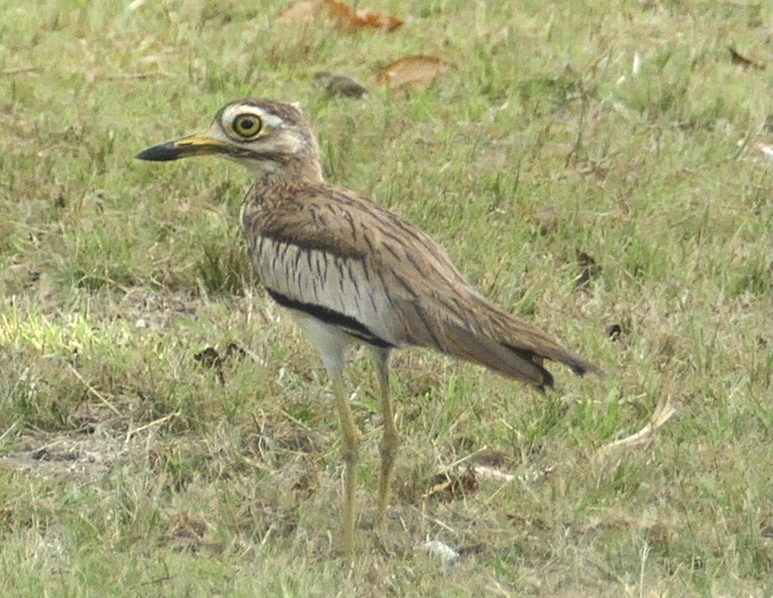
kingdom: Animalia
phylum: Chordata
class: Aves
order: Charadriiformes
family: Burhinidae
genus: Burhinus
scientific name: Burhinus senegalensis
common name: Senegal thick-knee
